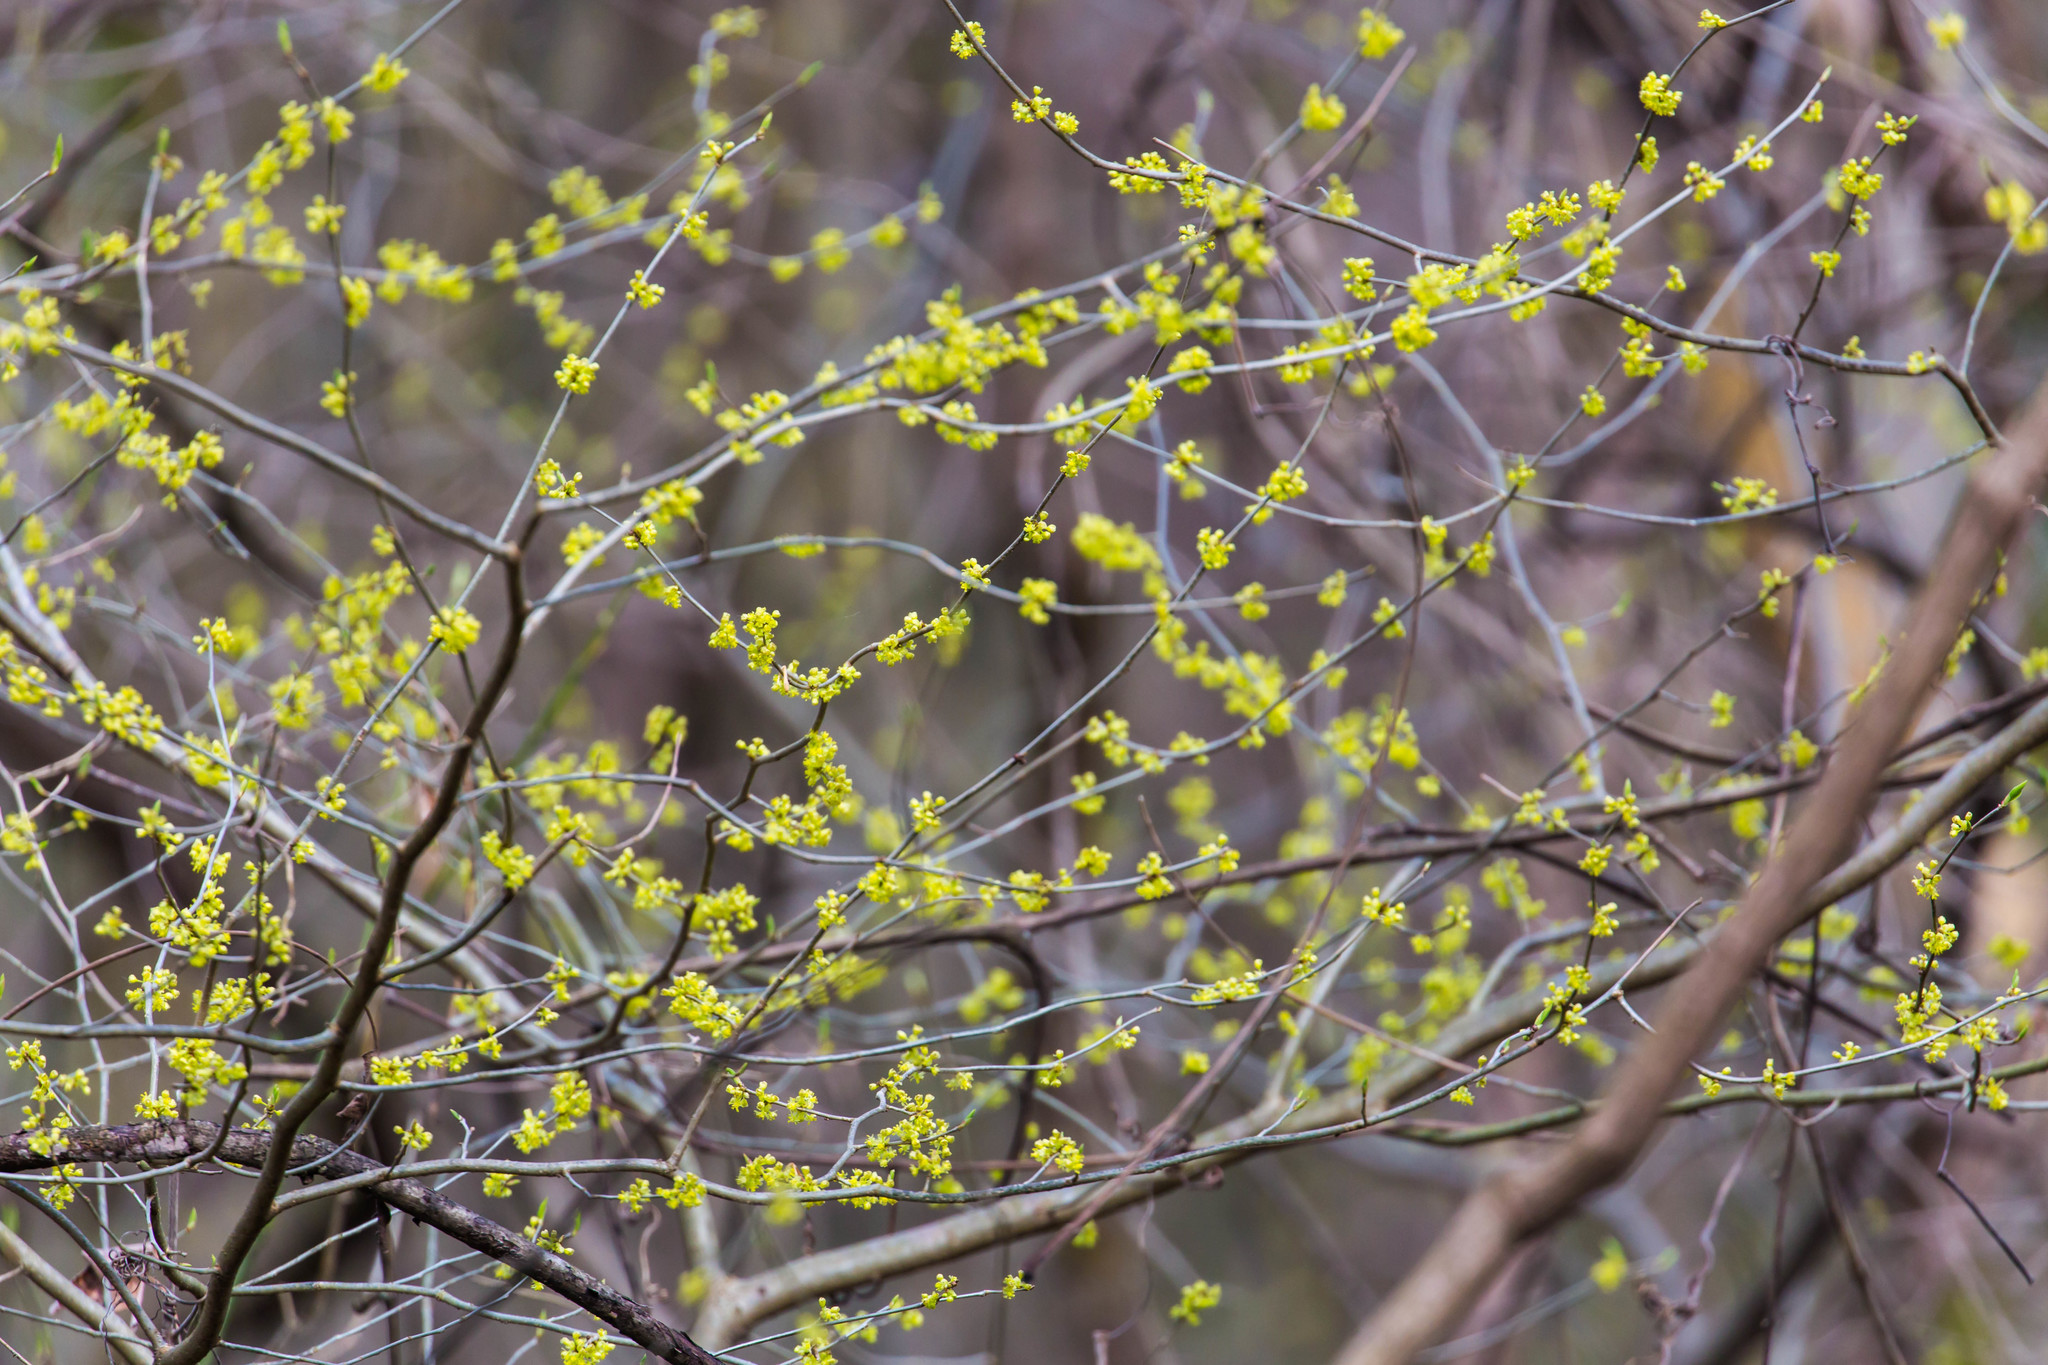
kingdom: Plantae
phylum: Tracheophyta
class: Magnoliopsida
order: Laurales
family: Lauraceae
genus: Lindera
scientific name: Lindera benzoin
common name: Spicebush
